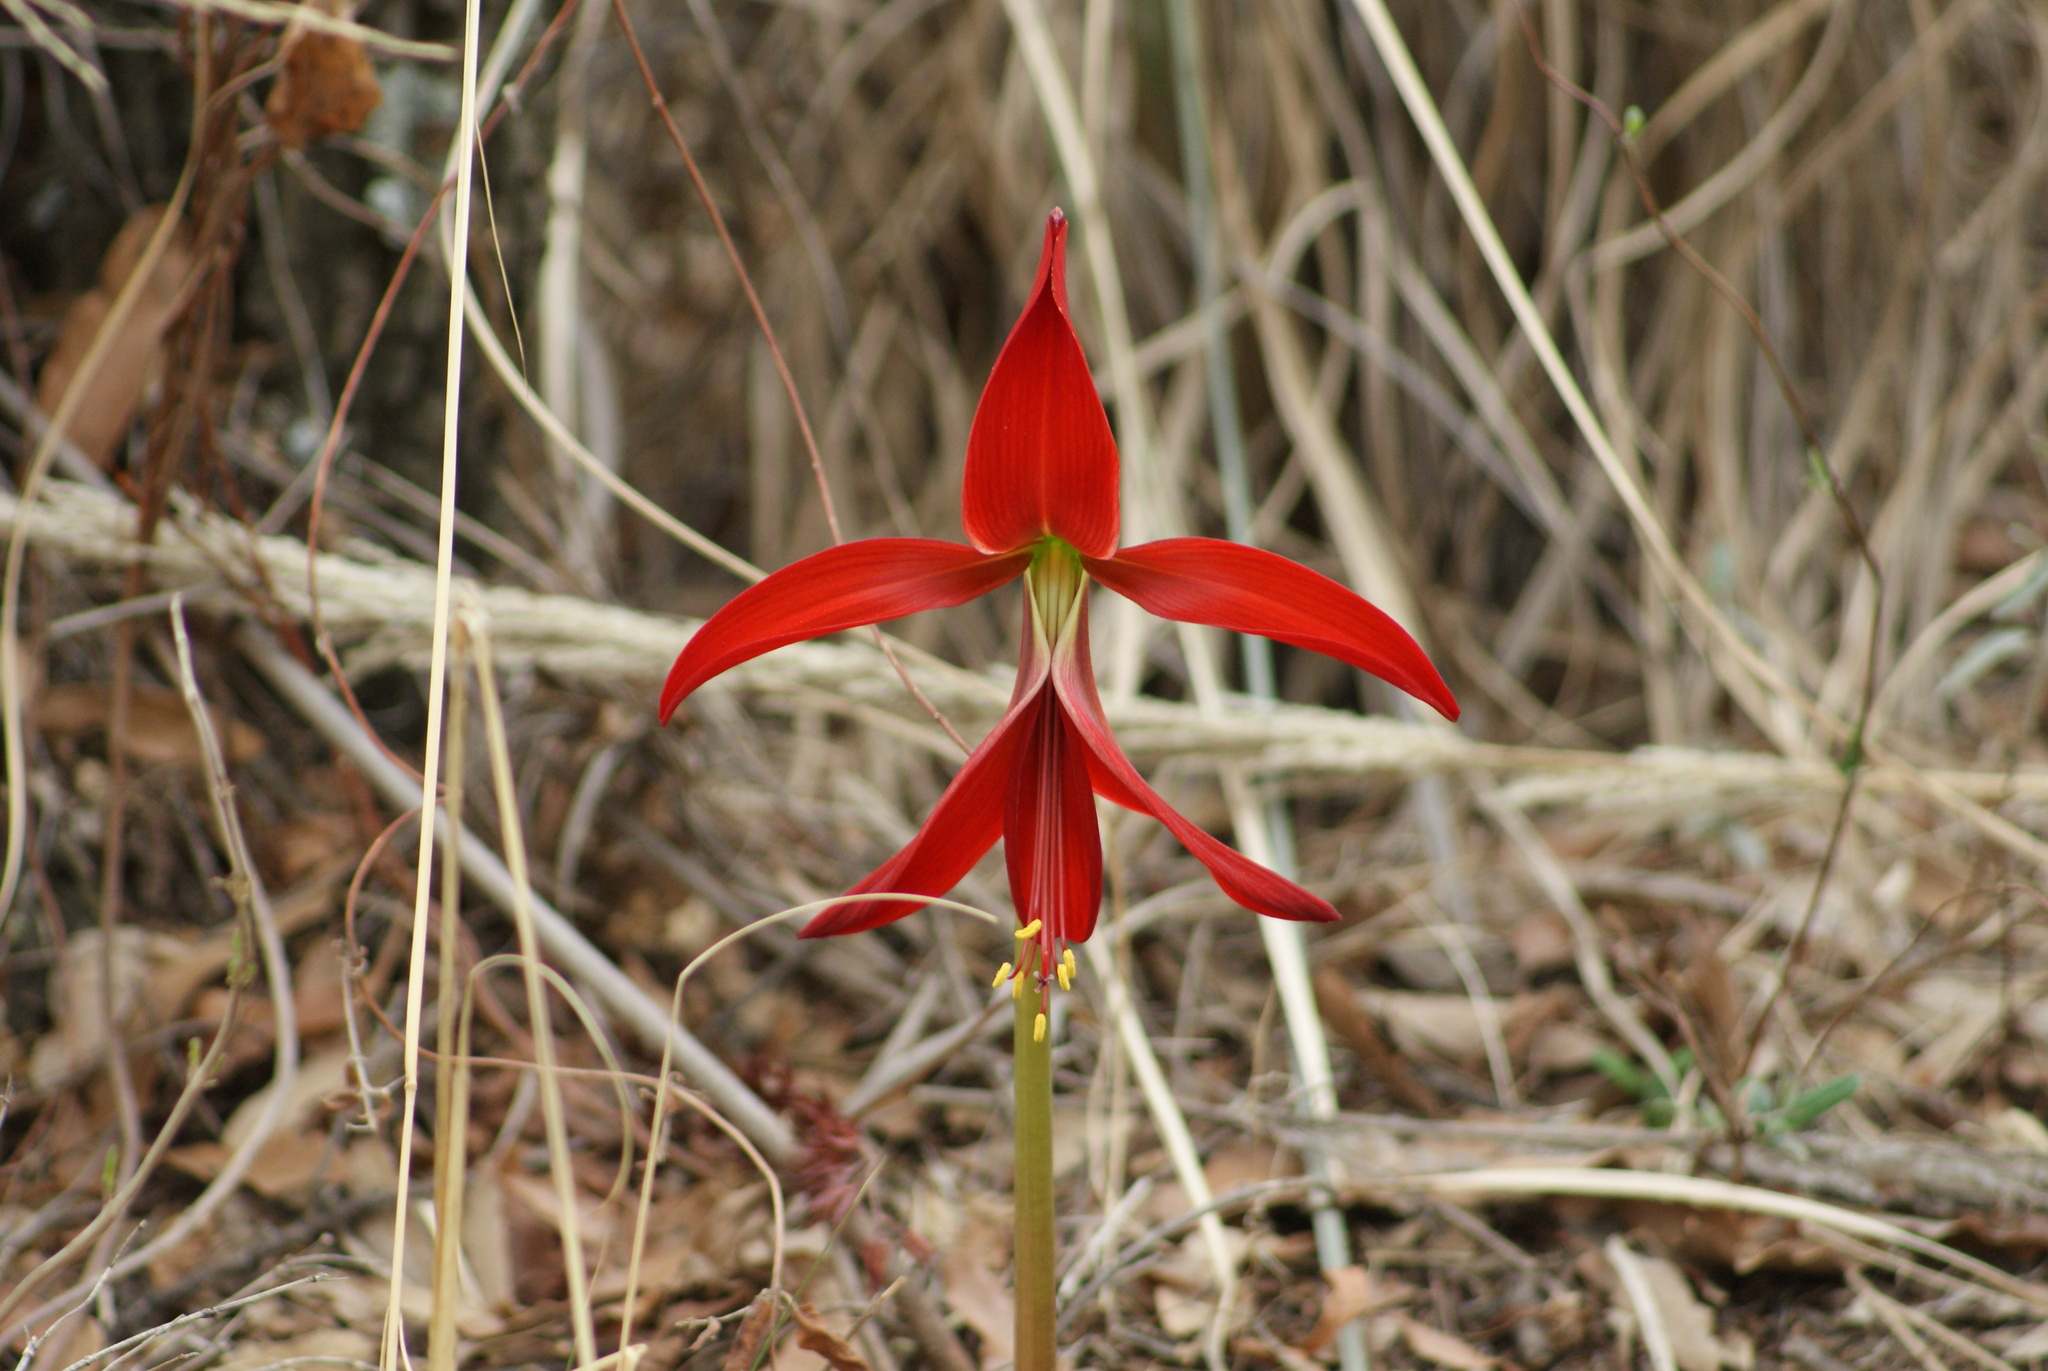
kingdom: Plantae
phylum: Tracheophyta
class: Liliopsida
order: Asparagales
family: Amaryllidaceae
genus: Sprekelia
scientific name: Sprekelia formosissima
